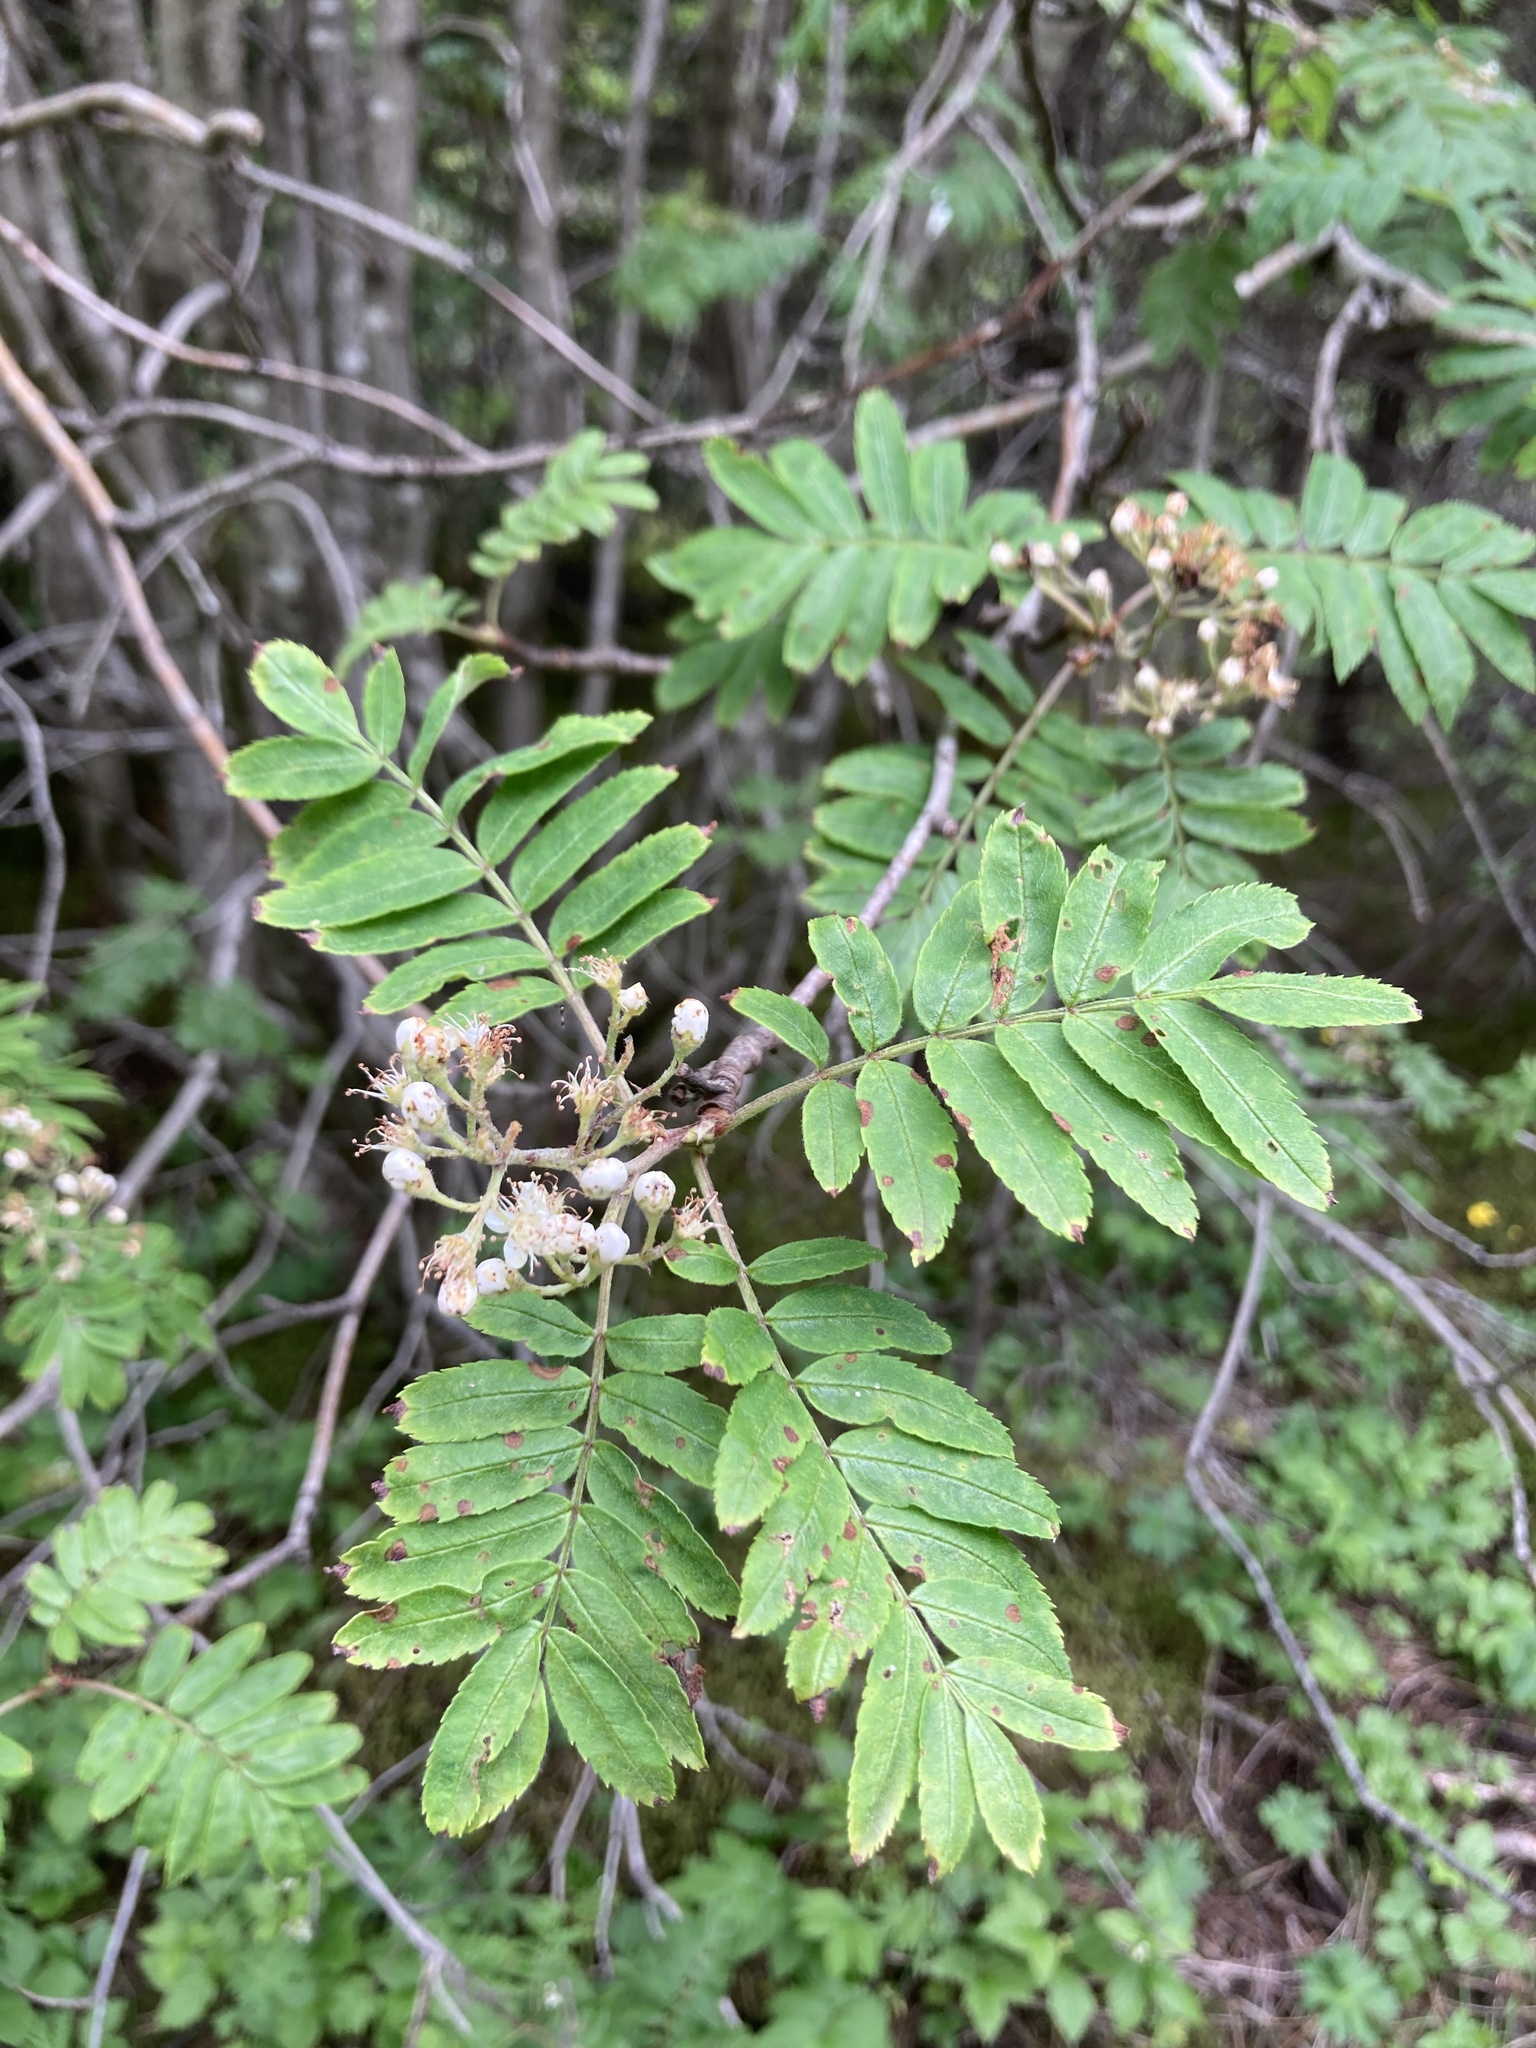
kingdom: Plantae
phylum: Tracheophyta
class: Magnoliopsida
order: Rosales
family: Rosaceae
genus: Sorbus
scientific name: Sorbus aucuparia
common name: Rowan
